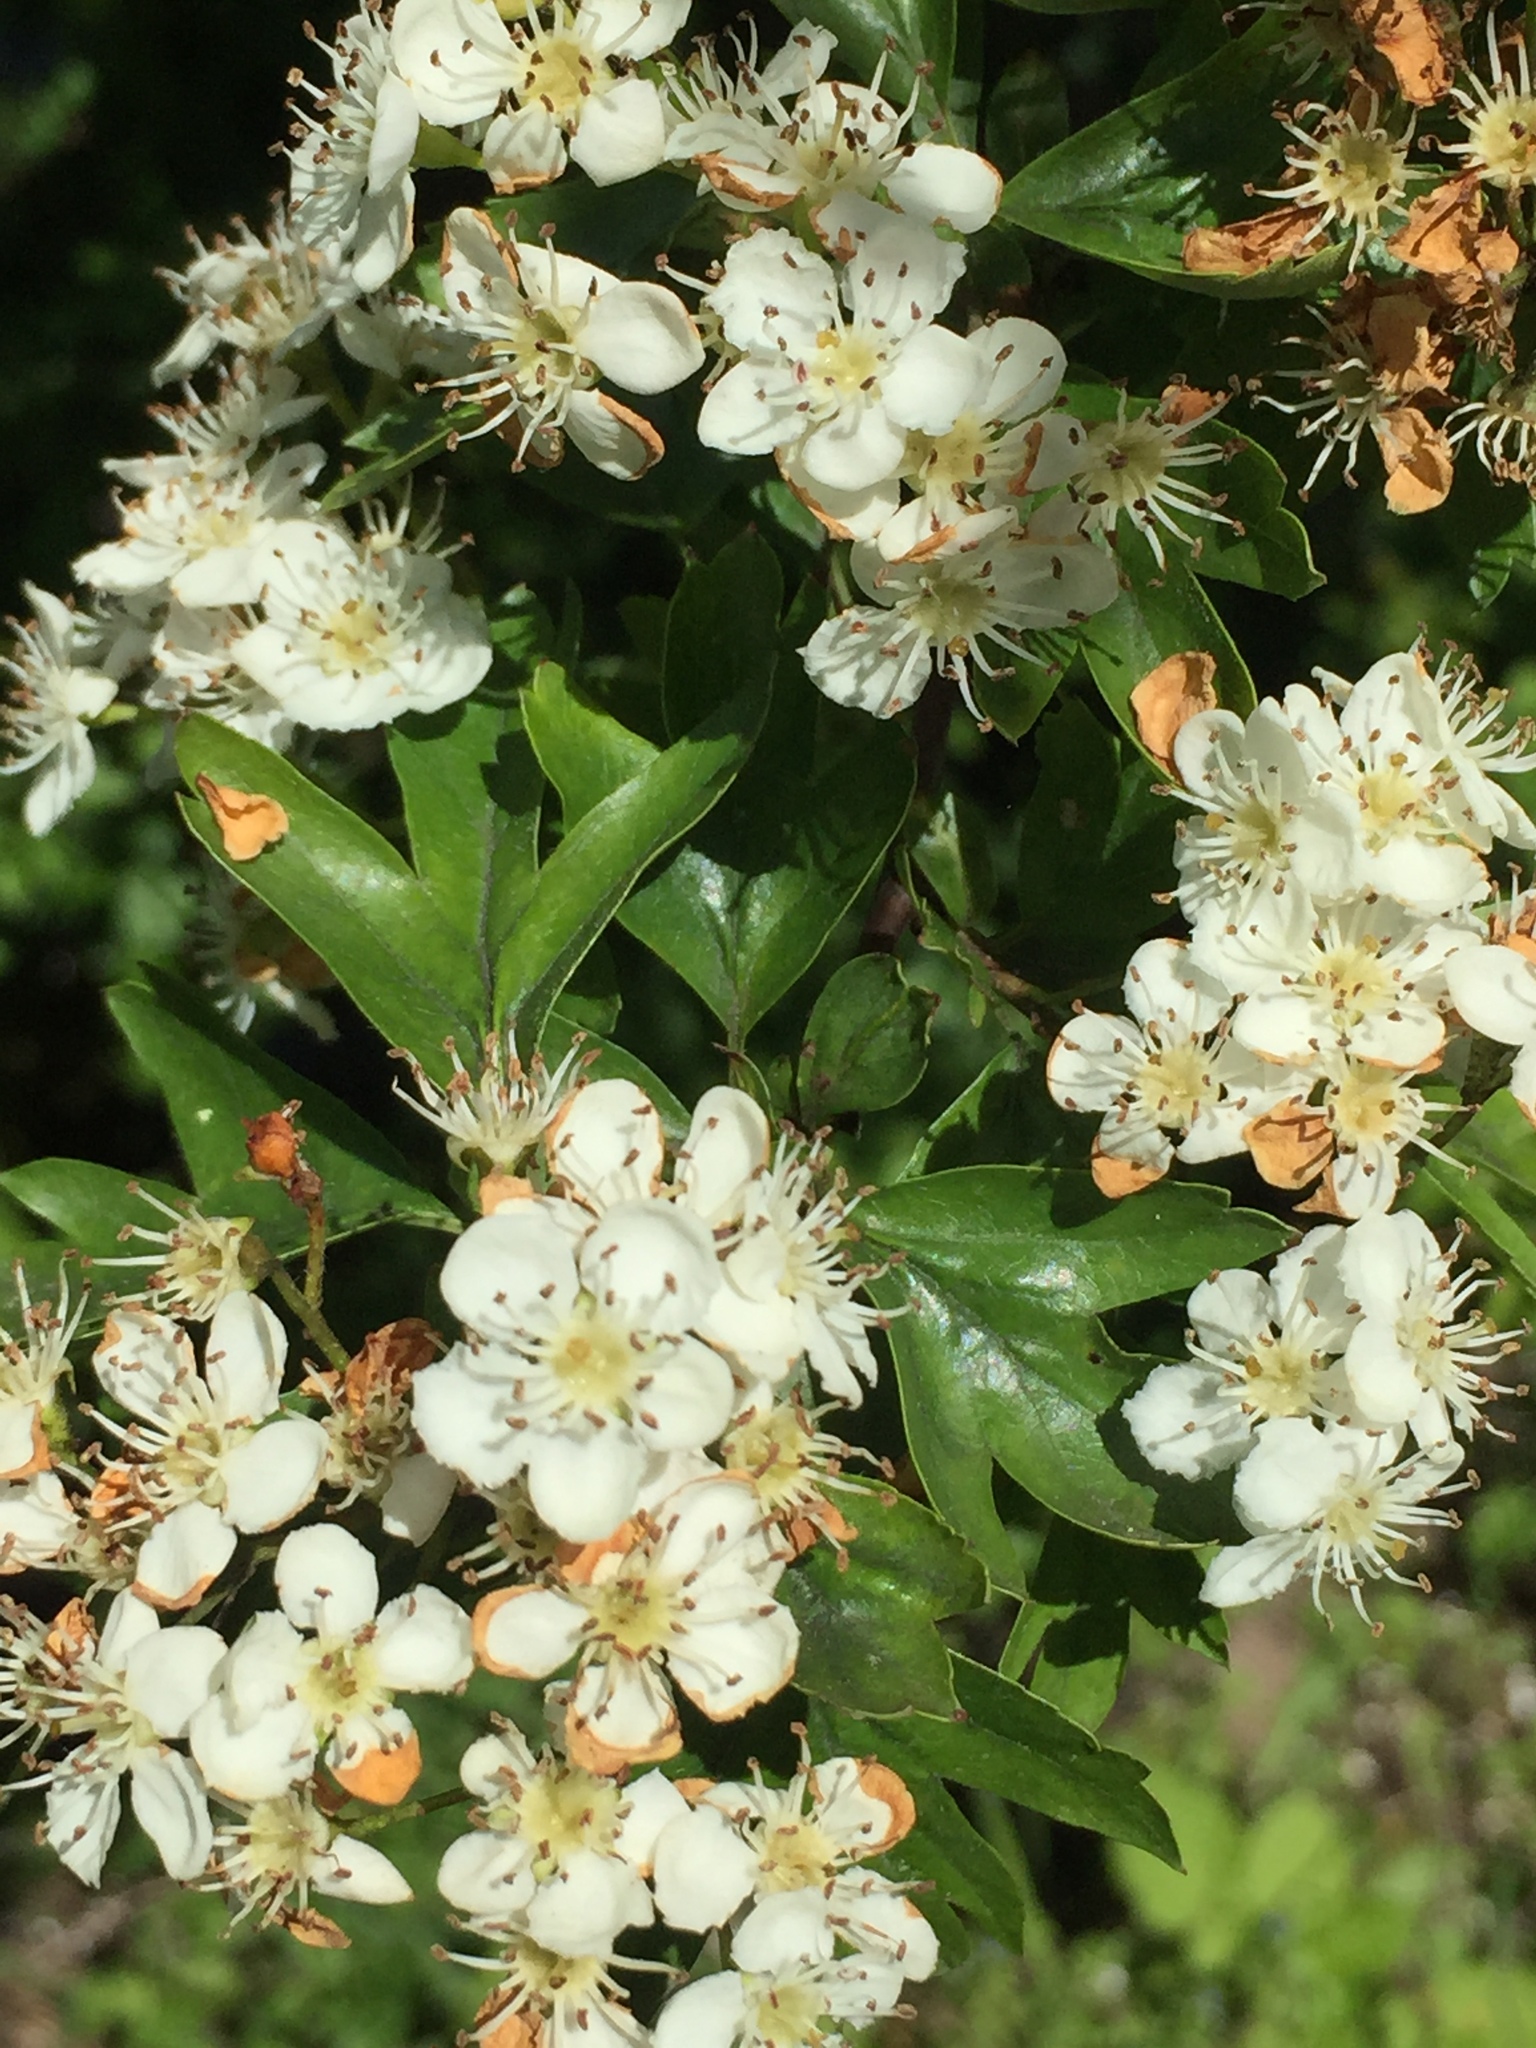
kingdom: Plantae
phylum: Tracheophyta
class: Magnoliopsida
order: Rosales
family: Rosaceae
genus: Crataegus
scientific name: Crataegus monogyna
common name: Hawthorn
